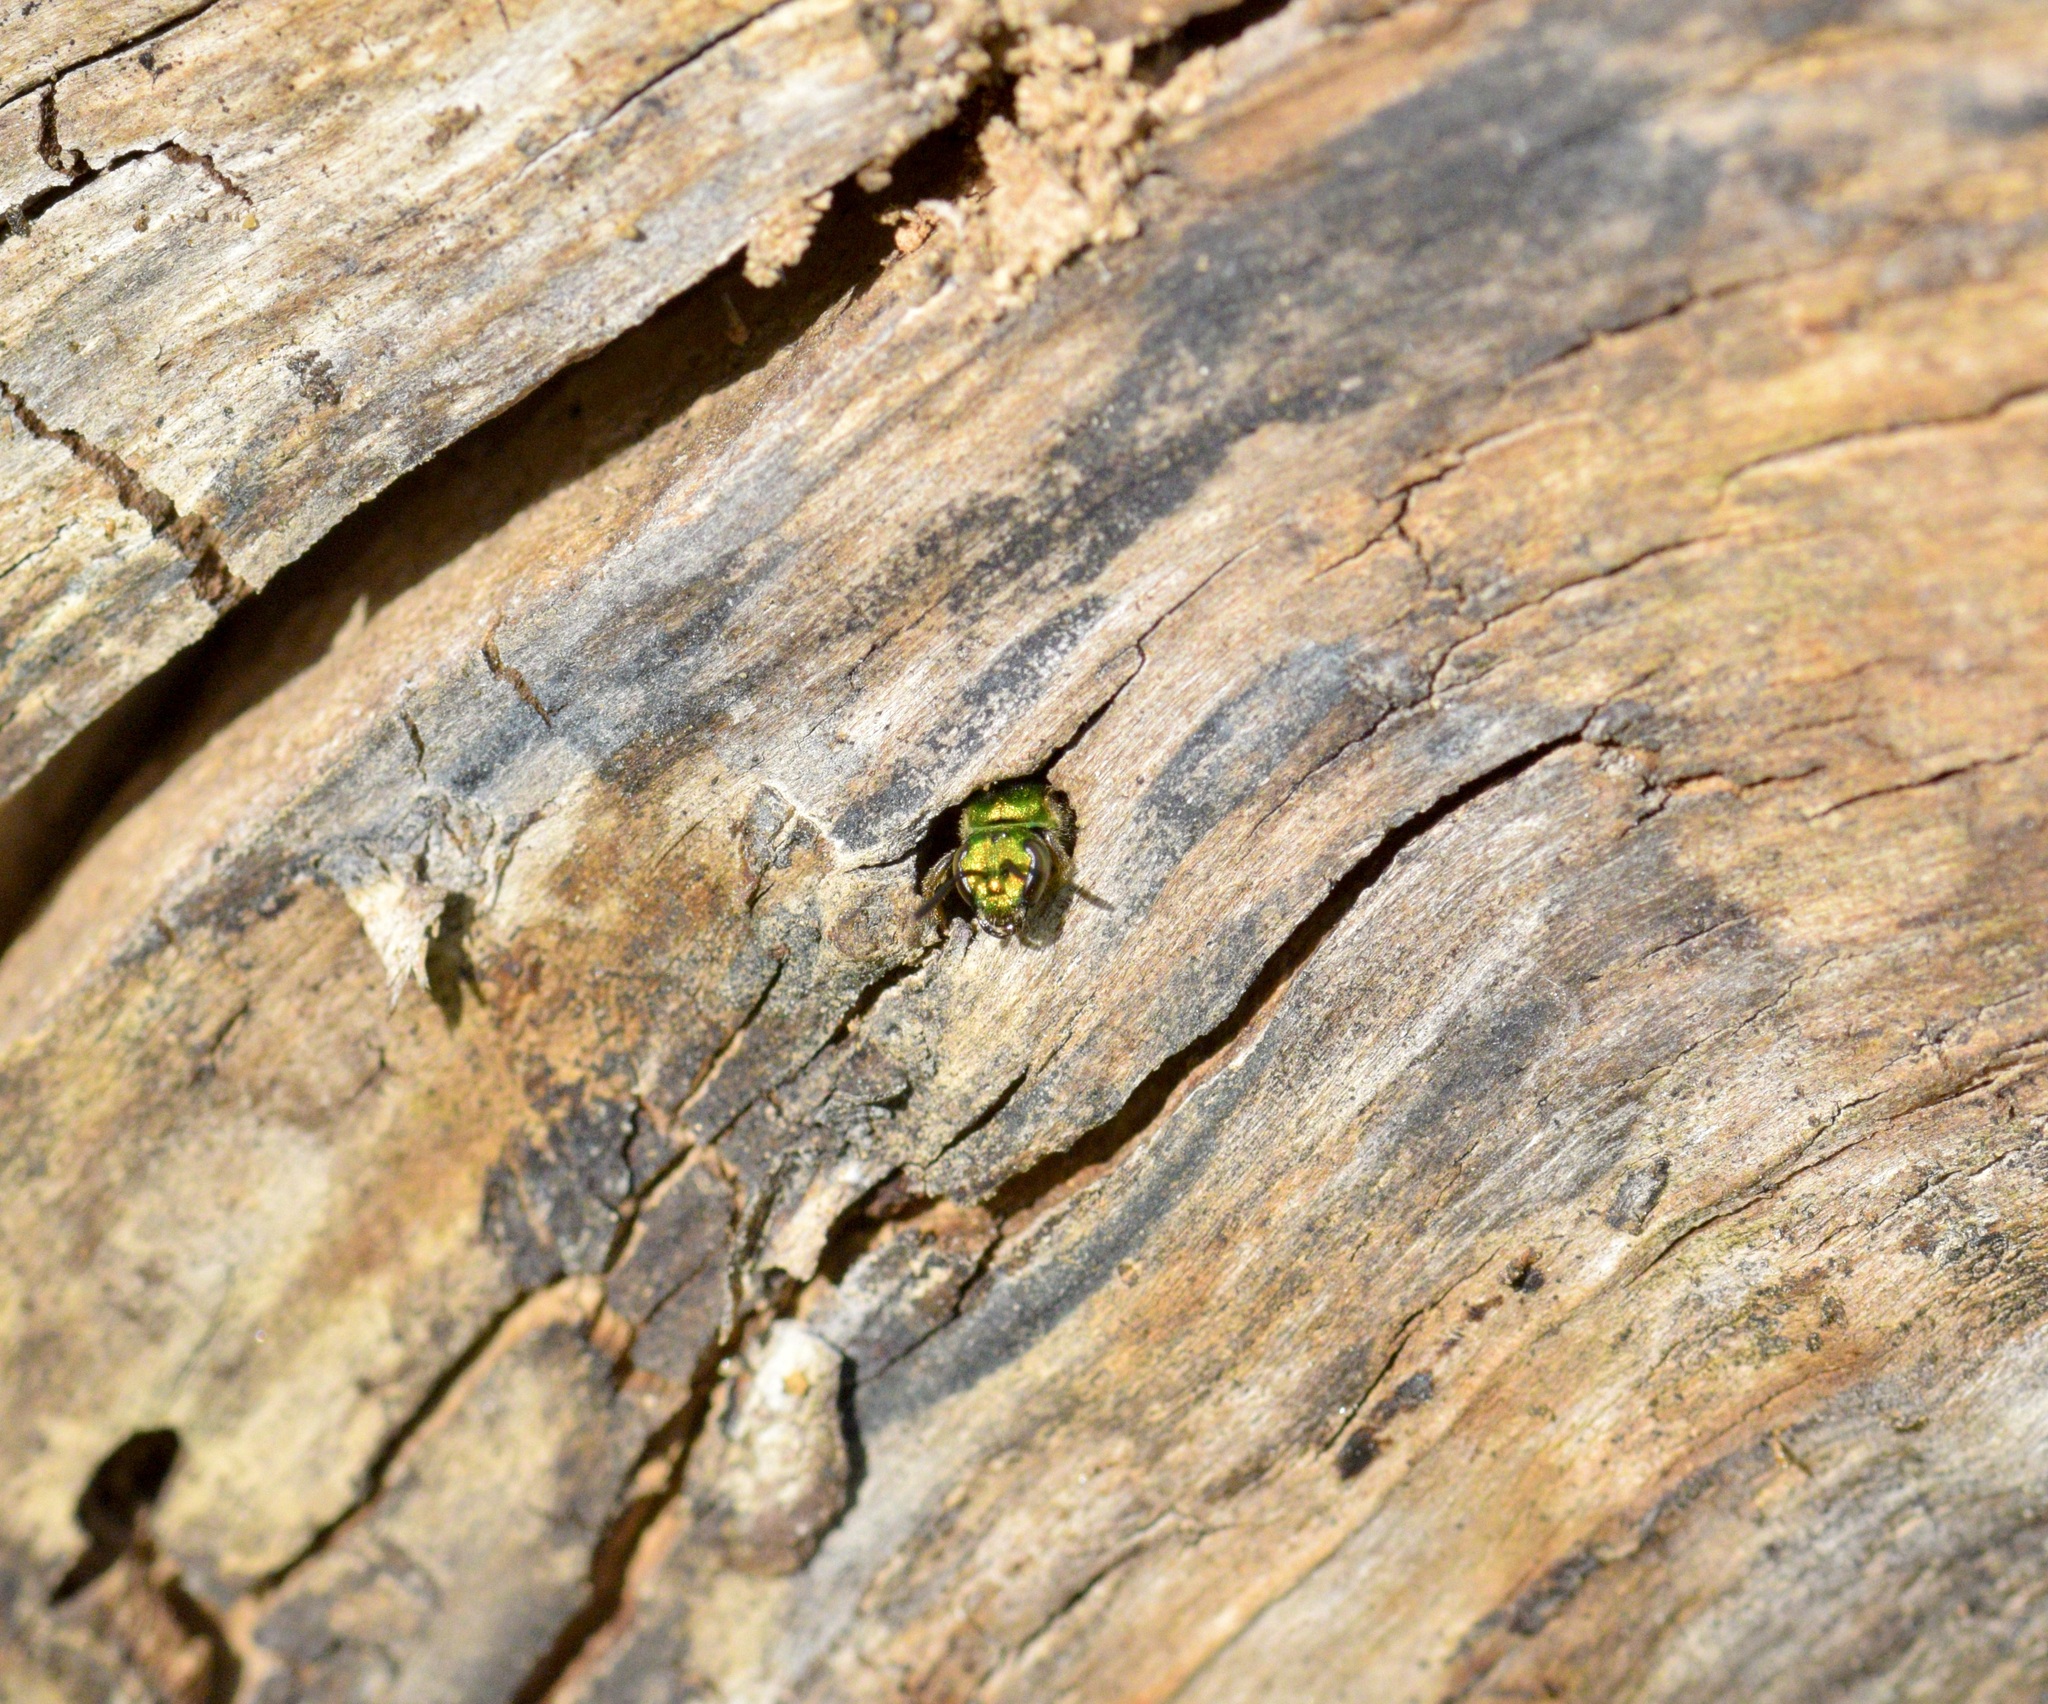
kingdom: Animalia
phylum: Arthropoda
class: Insecta
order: Hymenoptera
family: Halictidae
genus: Augochlora
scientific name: Augochlora pura
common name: Pure green sweat bee
